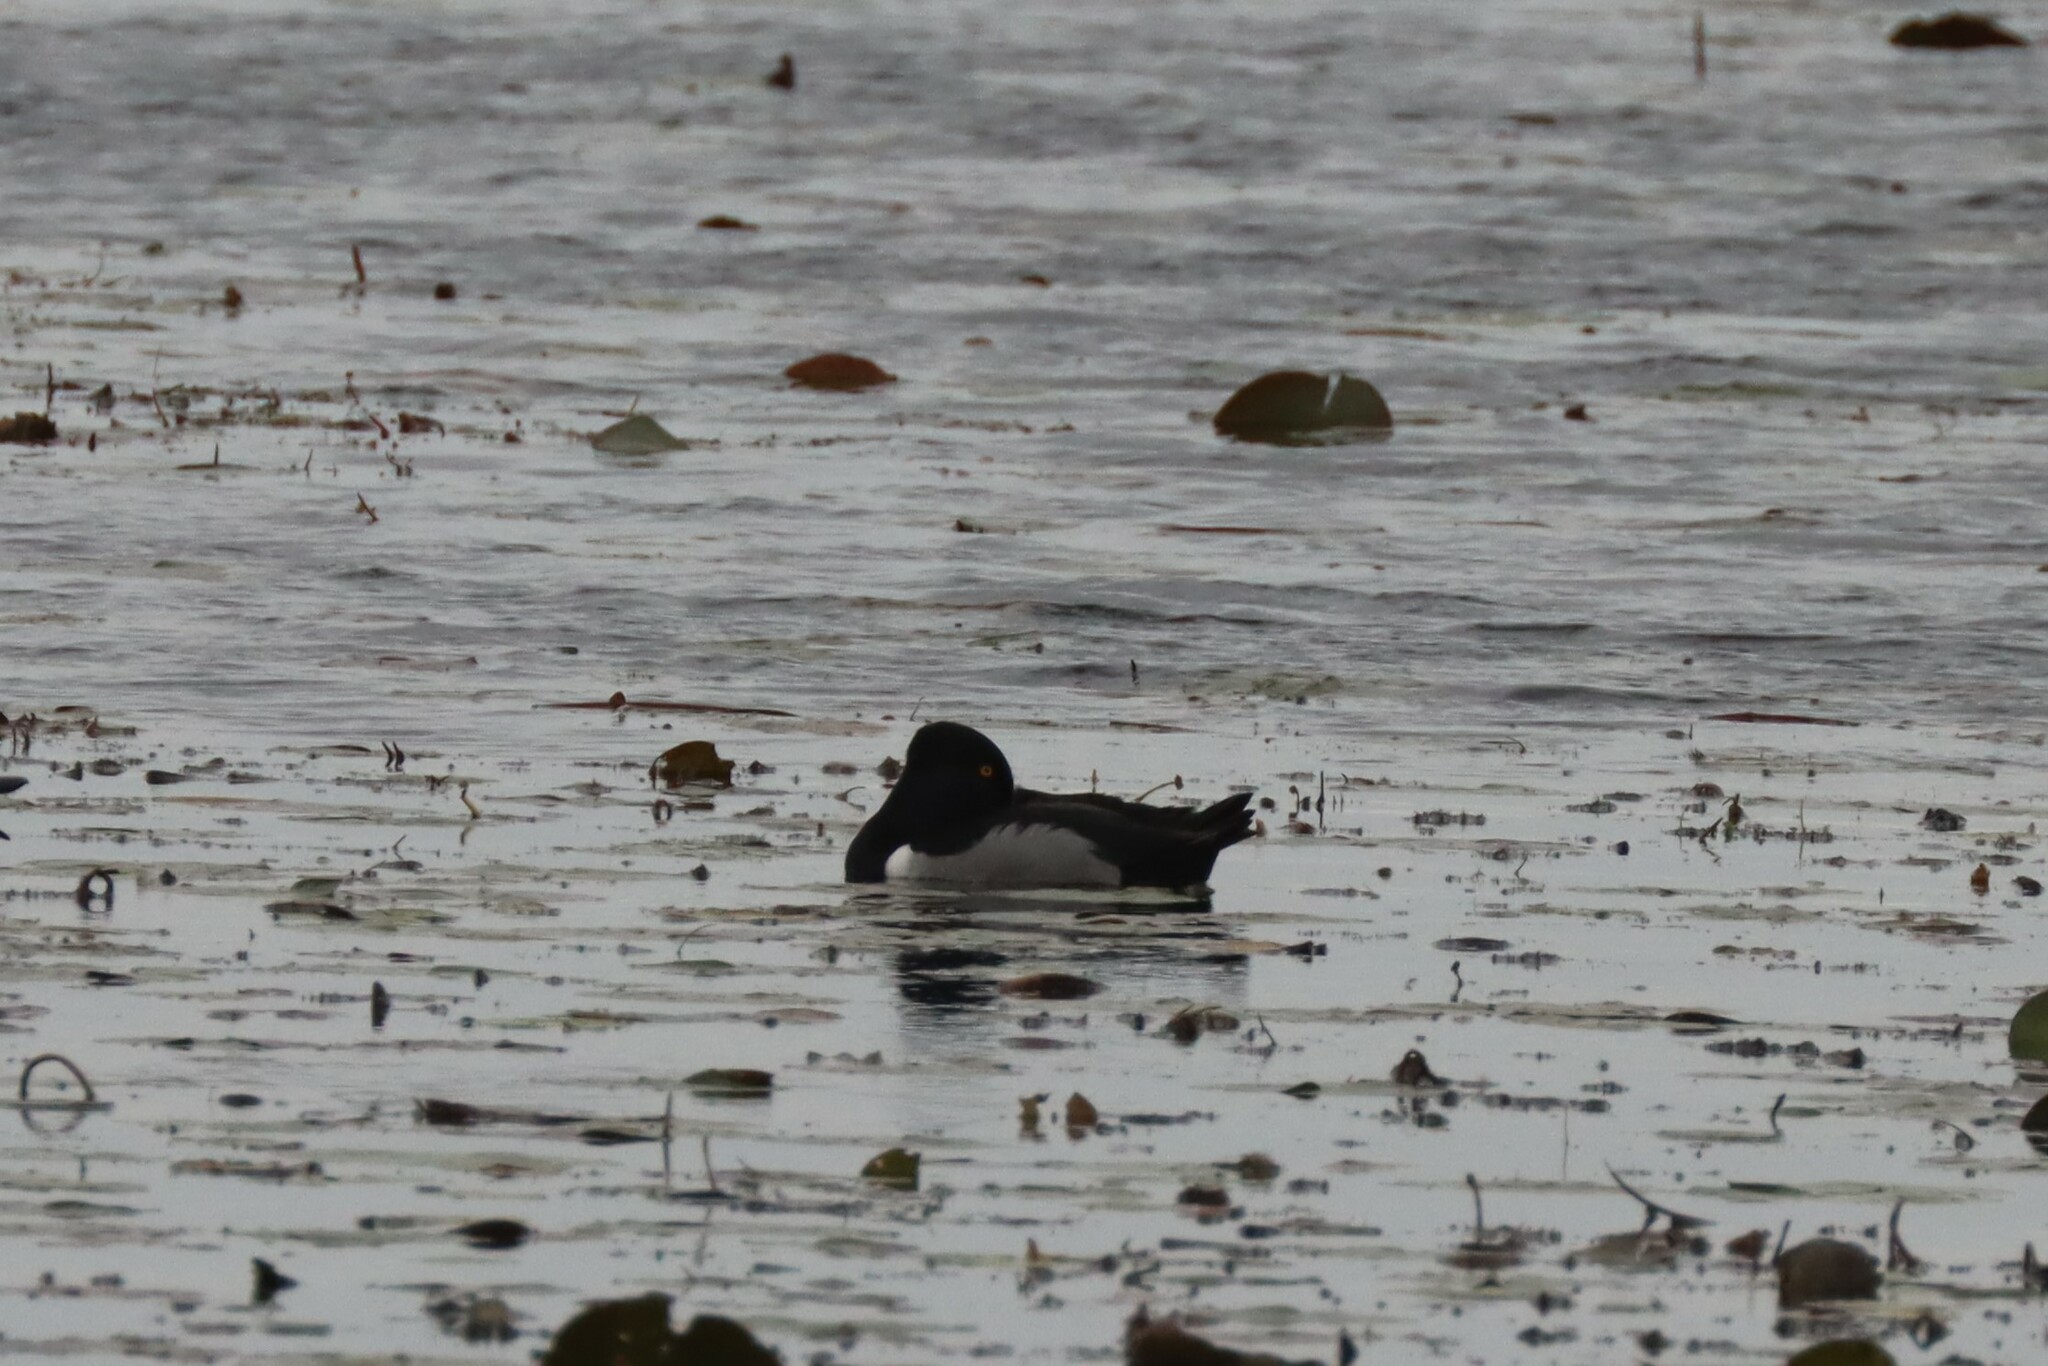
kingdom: Animalia
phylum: Chordata
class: Aves
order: Anseriformes
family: Anatidae
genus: Aythya
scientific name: Aythya collaris
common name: Ring-necked duck
